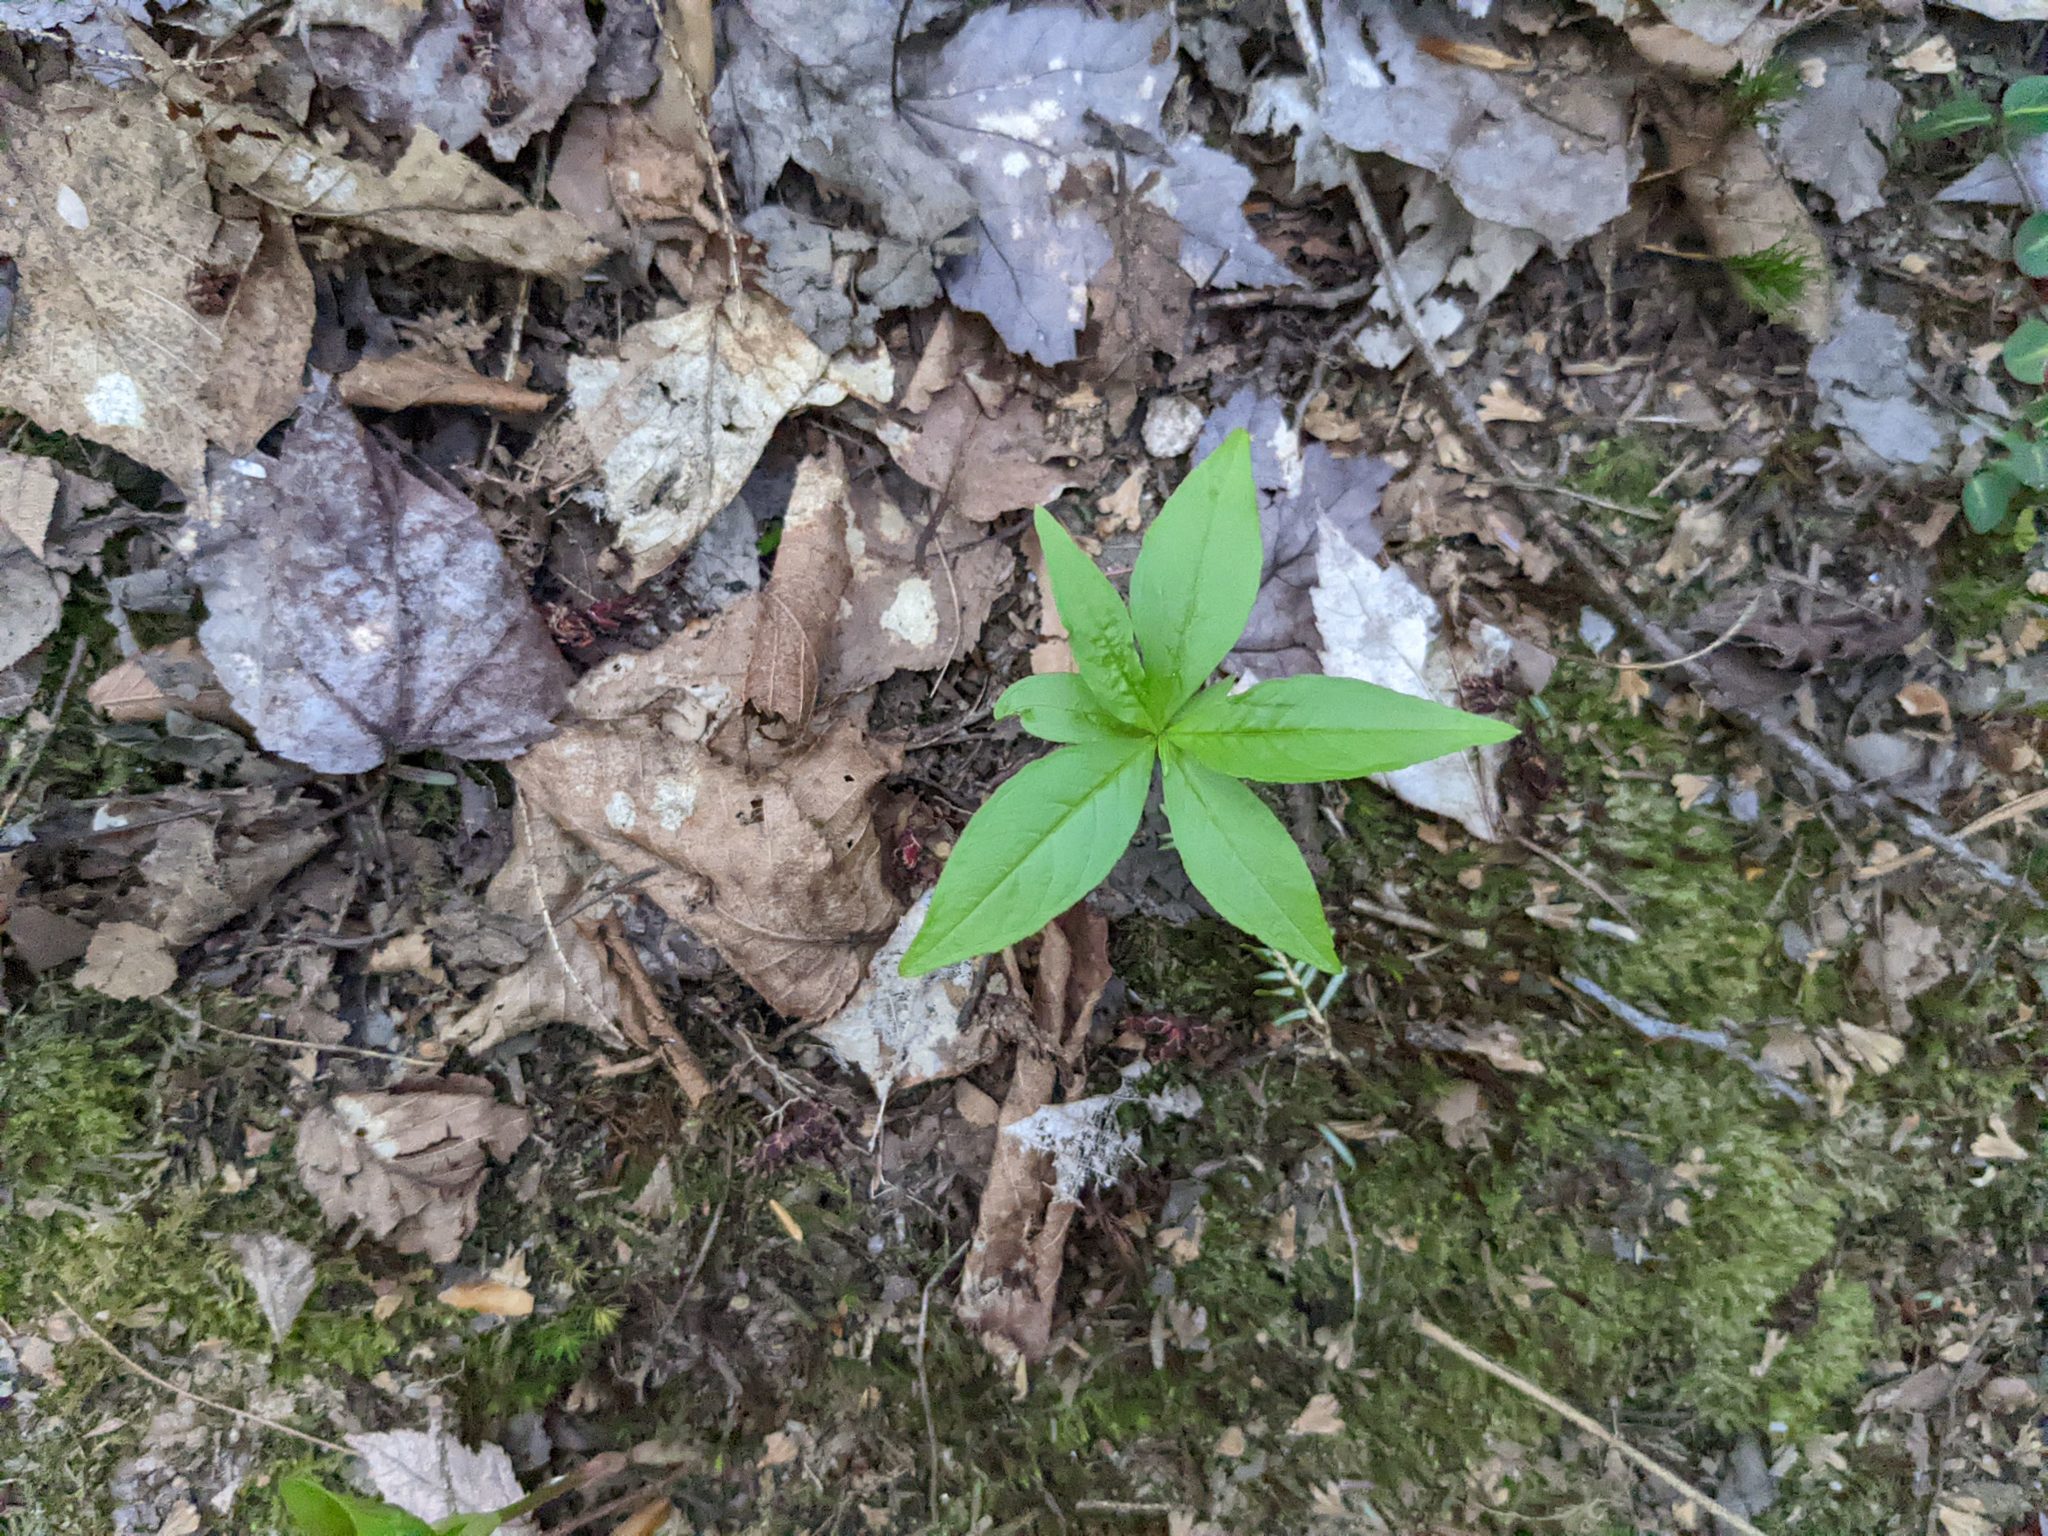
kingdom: Plantae
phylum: Tracheophyta
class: Magnoliopsida
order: Ericales
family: Primulaceae
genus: Lysimachia
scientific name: Lysimachia borealis
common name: American starflower
